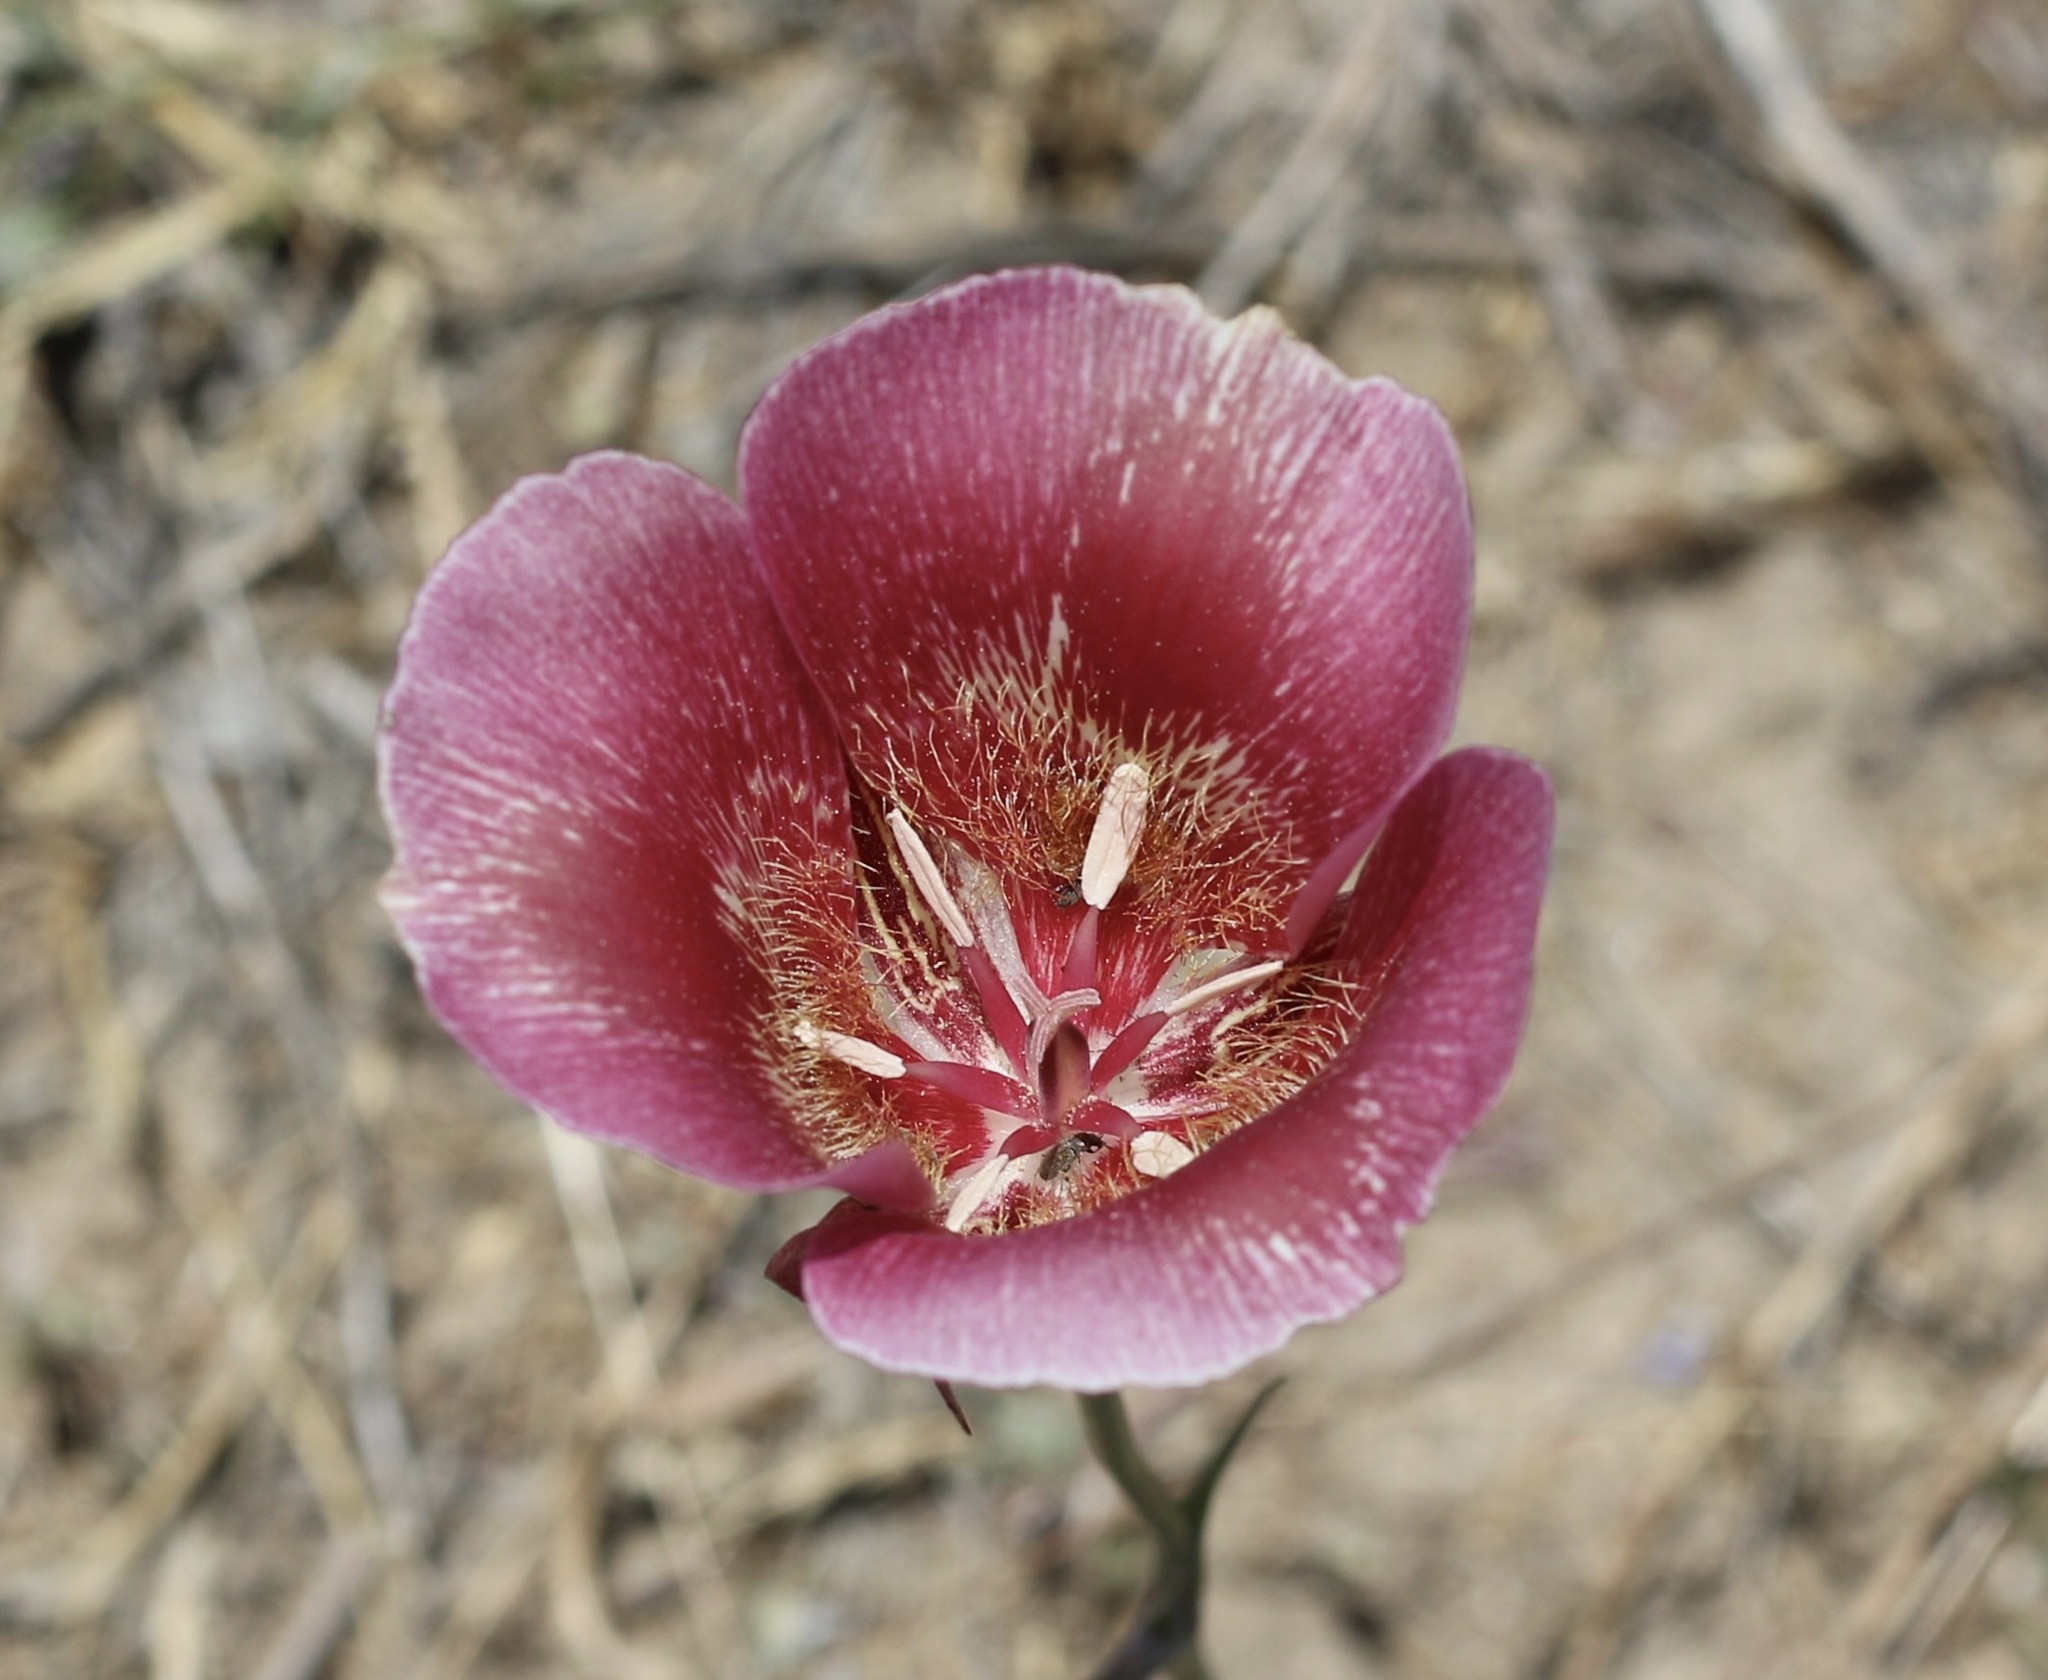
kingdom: Plantae
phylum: Tracheophyta
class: Liliopsida
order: Liliales
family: Liliaceae
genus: Calochortus
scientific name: Calochortus venustus
